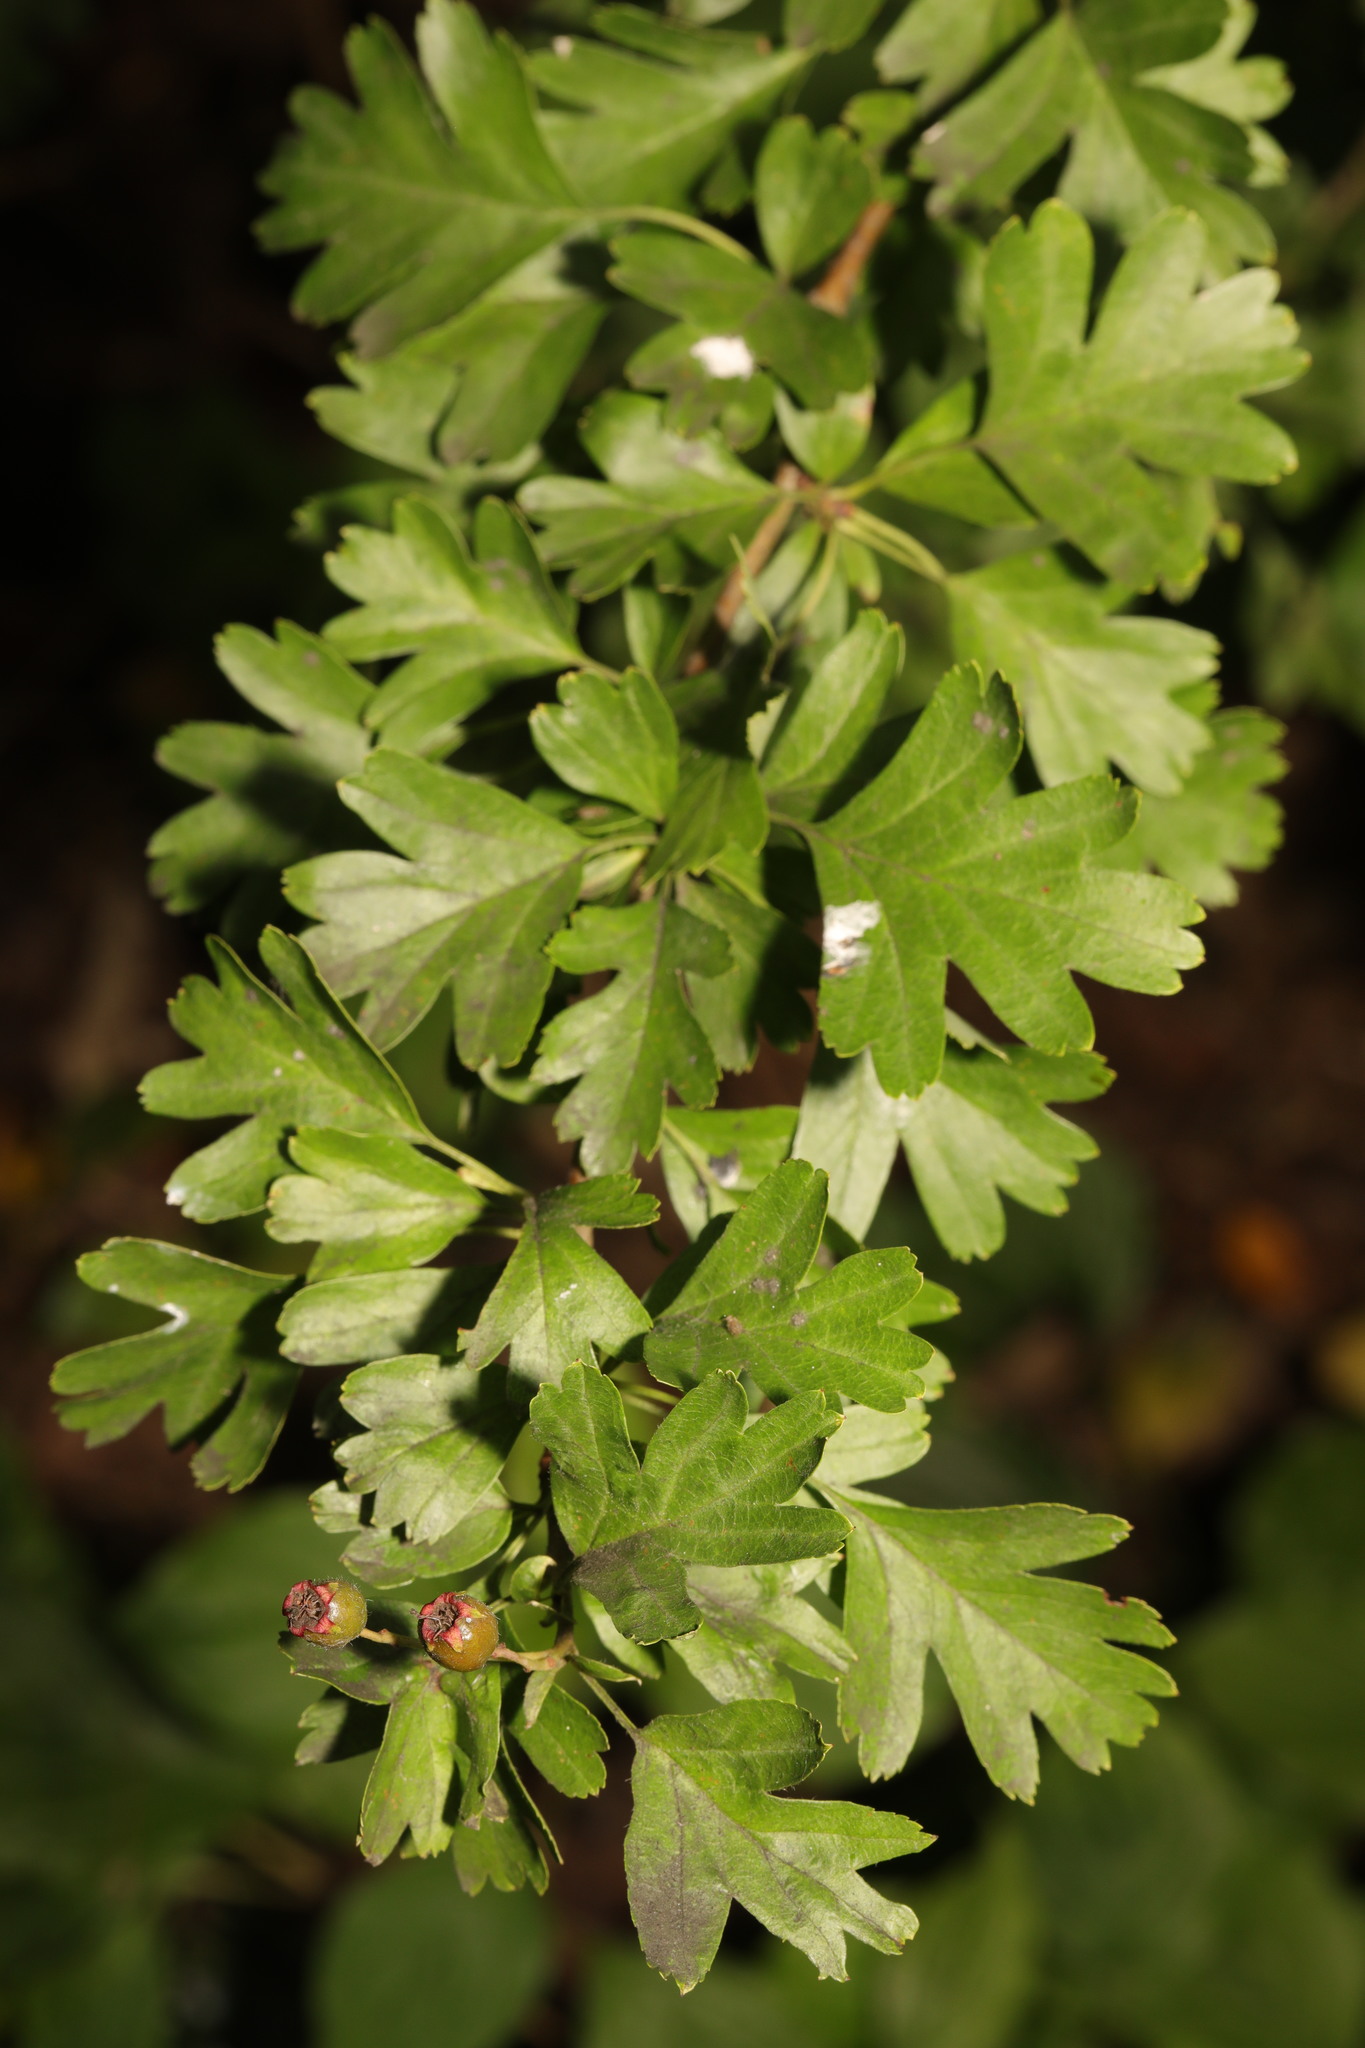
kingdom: Plantae
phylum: Tracheophyta
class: Magnoliopsida
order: Rosales
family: Rosaceae
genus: Crataegus
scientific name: Crataegus monogyna
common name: Hawthorn
